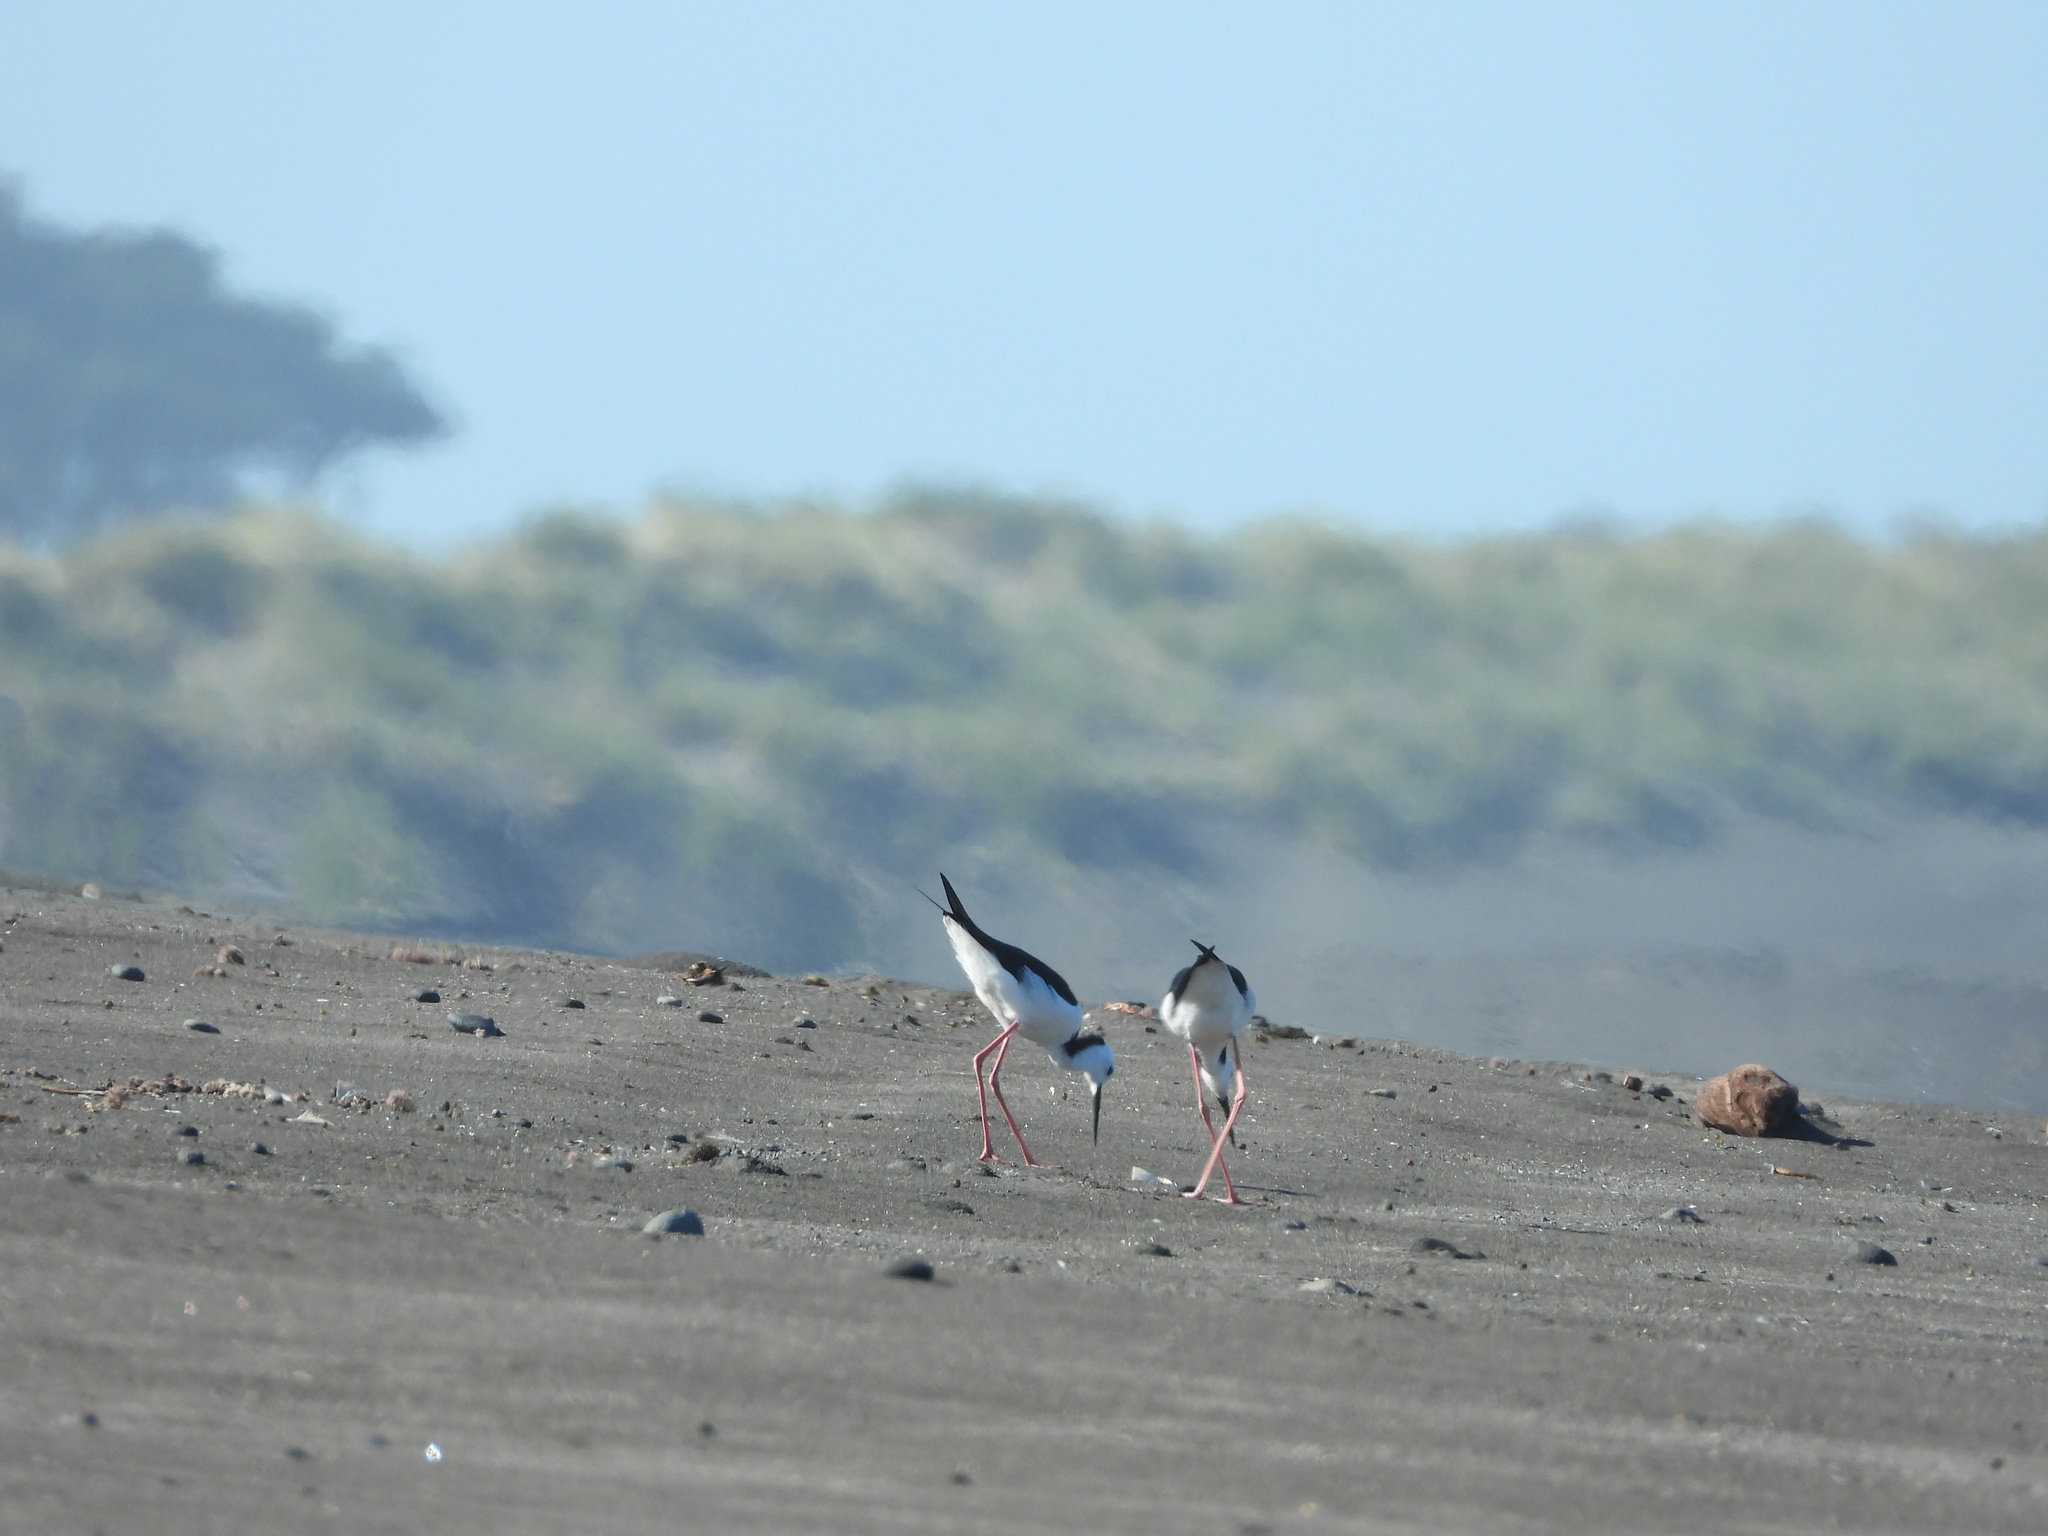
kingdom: Animalia
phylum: Chordata
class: Aves
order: Charadriiformes
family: Recurvirostridae
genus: Himantopus
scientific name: Himantopus leucocephalus
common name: White-headed stilt
